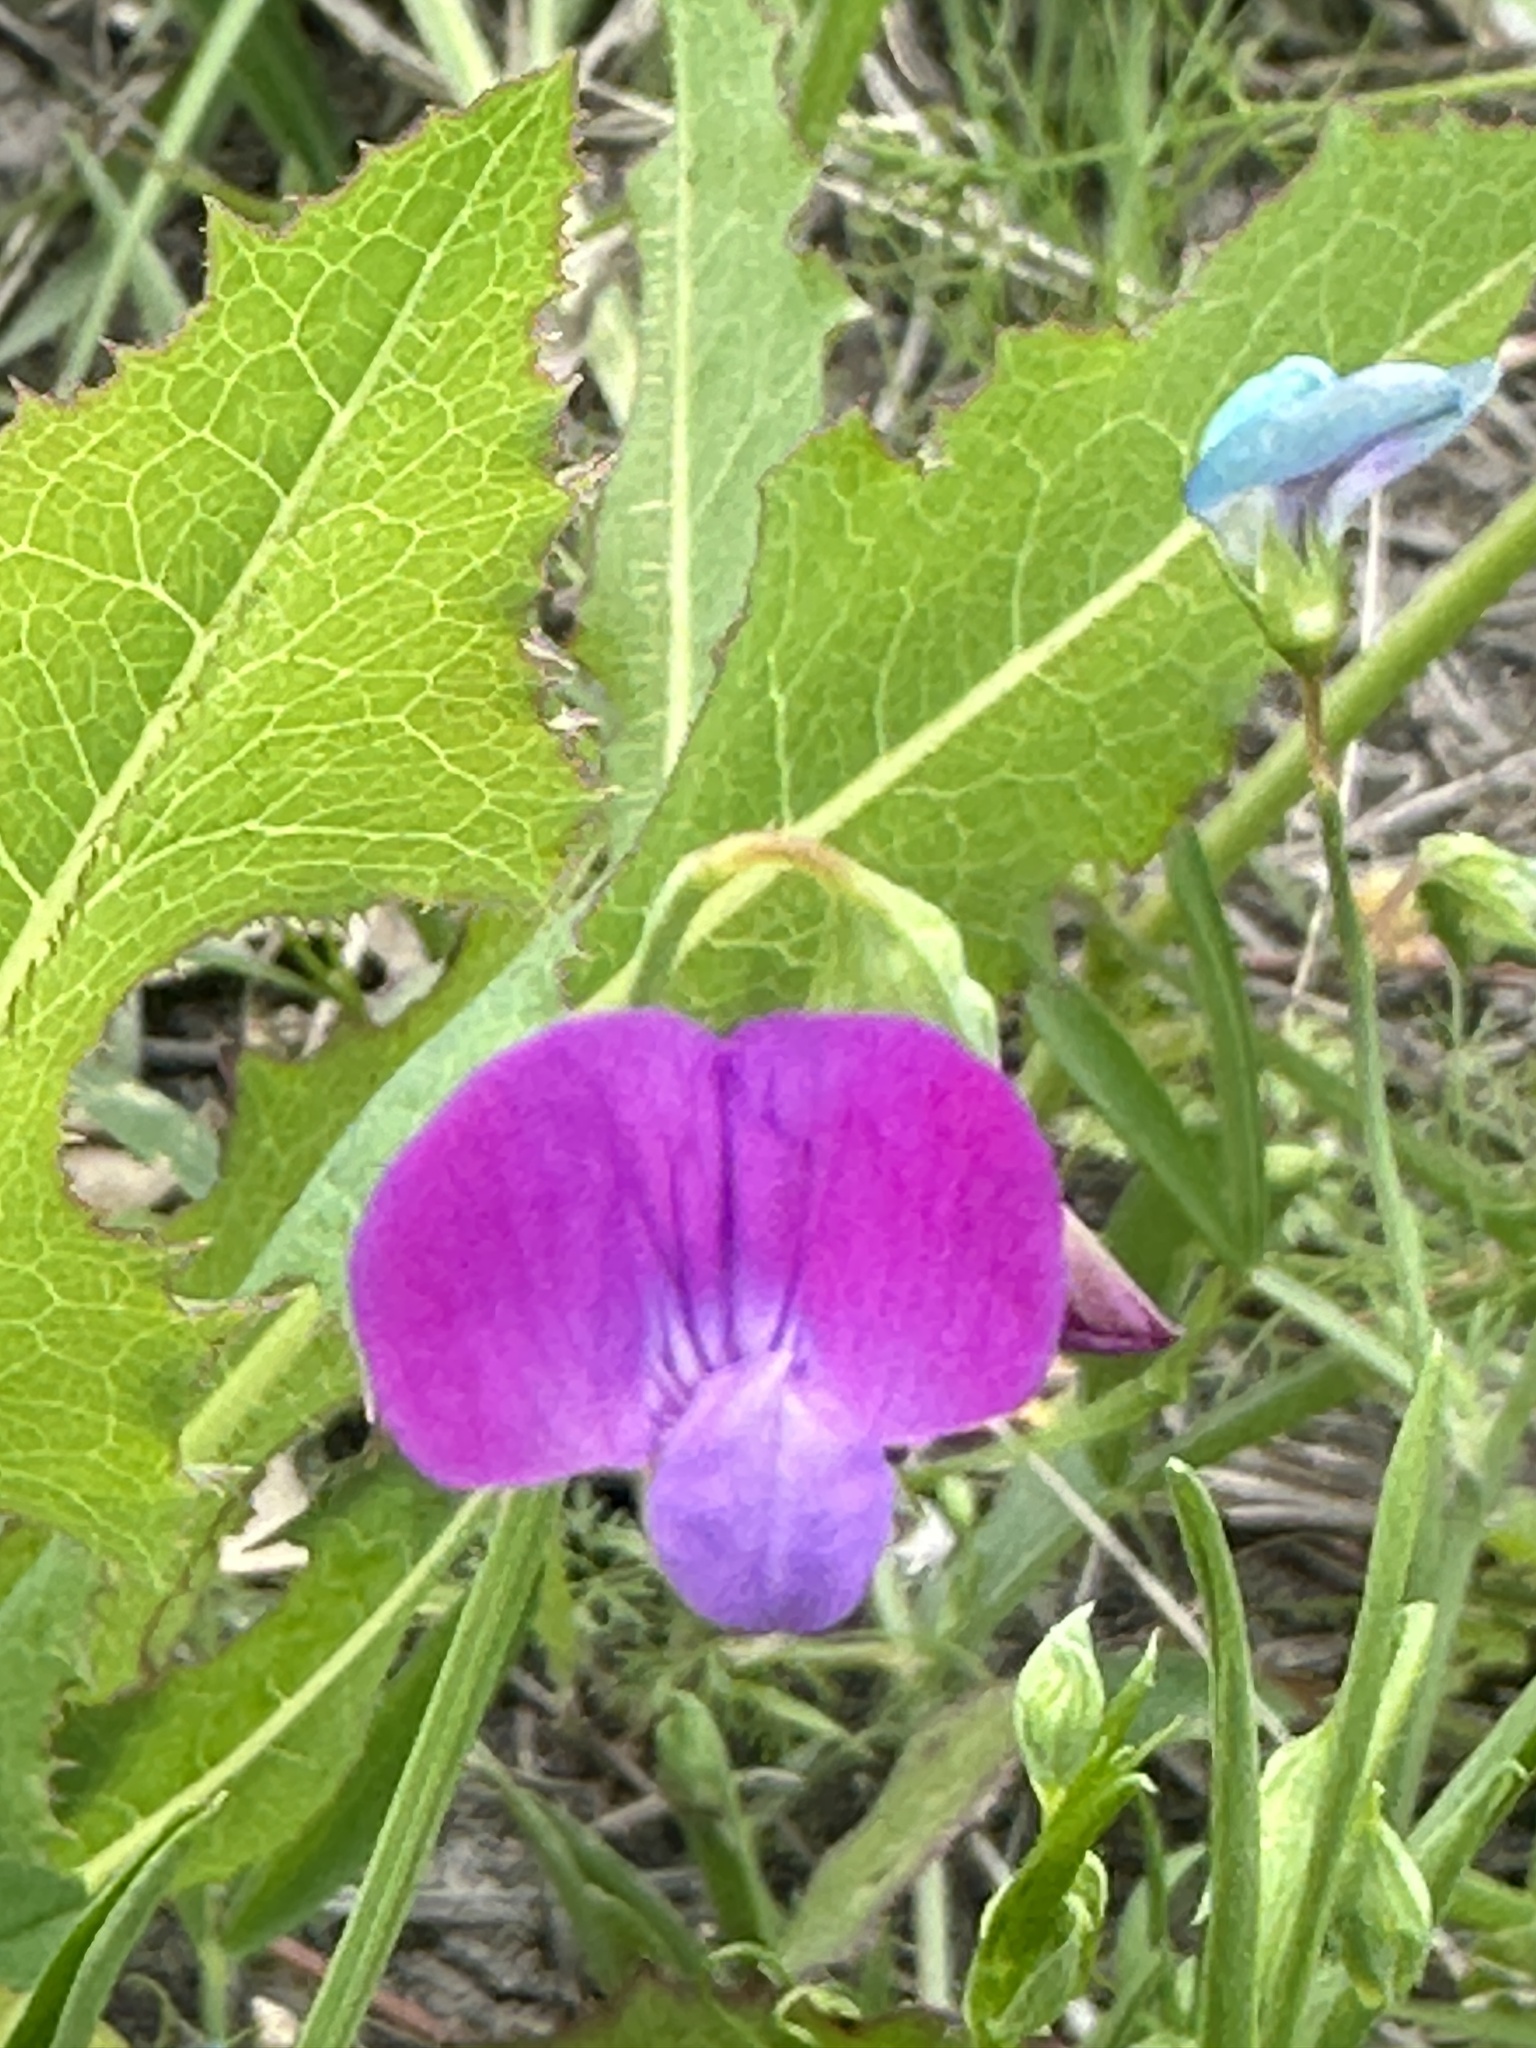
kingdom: Plantae
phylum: Tracheophyta
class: Magnoliopsida
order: Fabales
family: Fabaceae
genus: Lathyrus
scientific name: Lathyrus hirsutus
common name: Hairy vetchling
